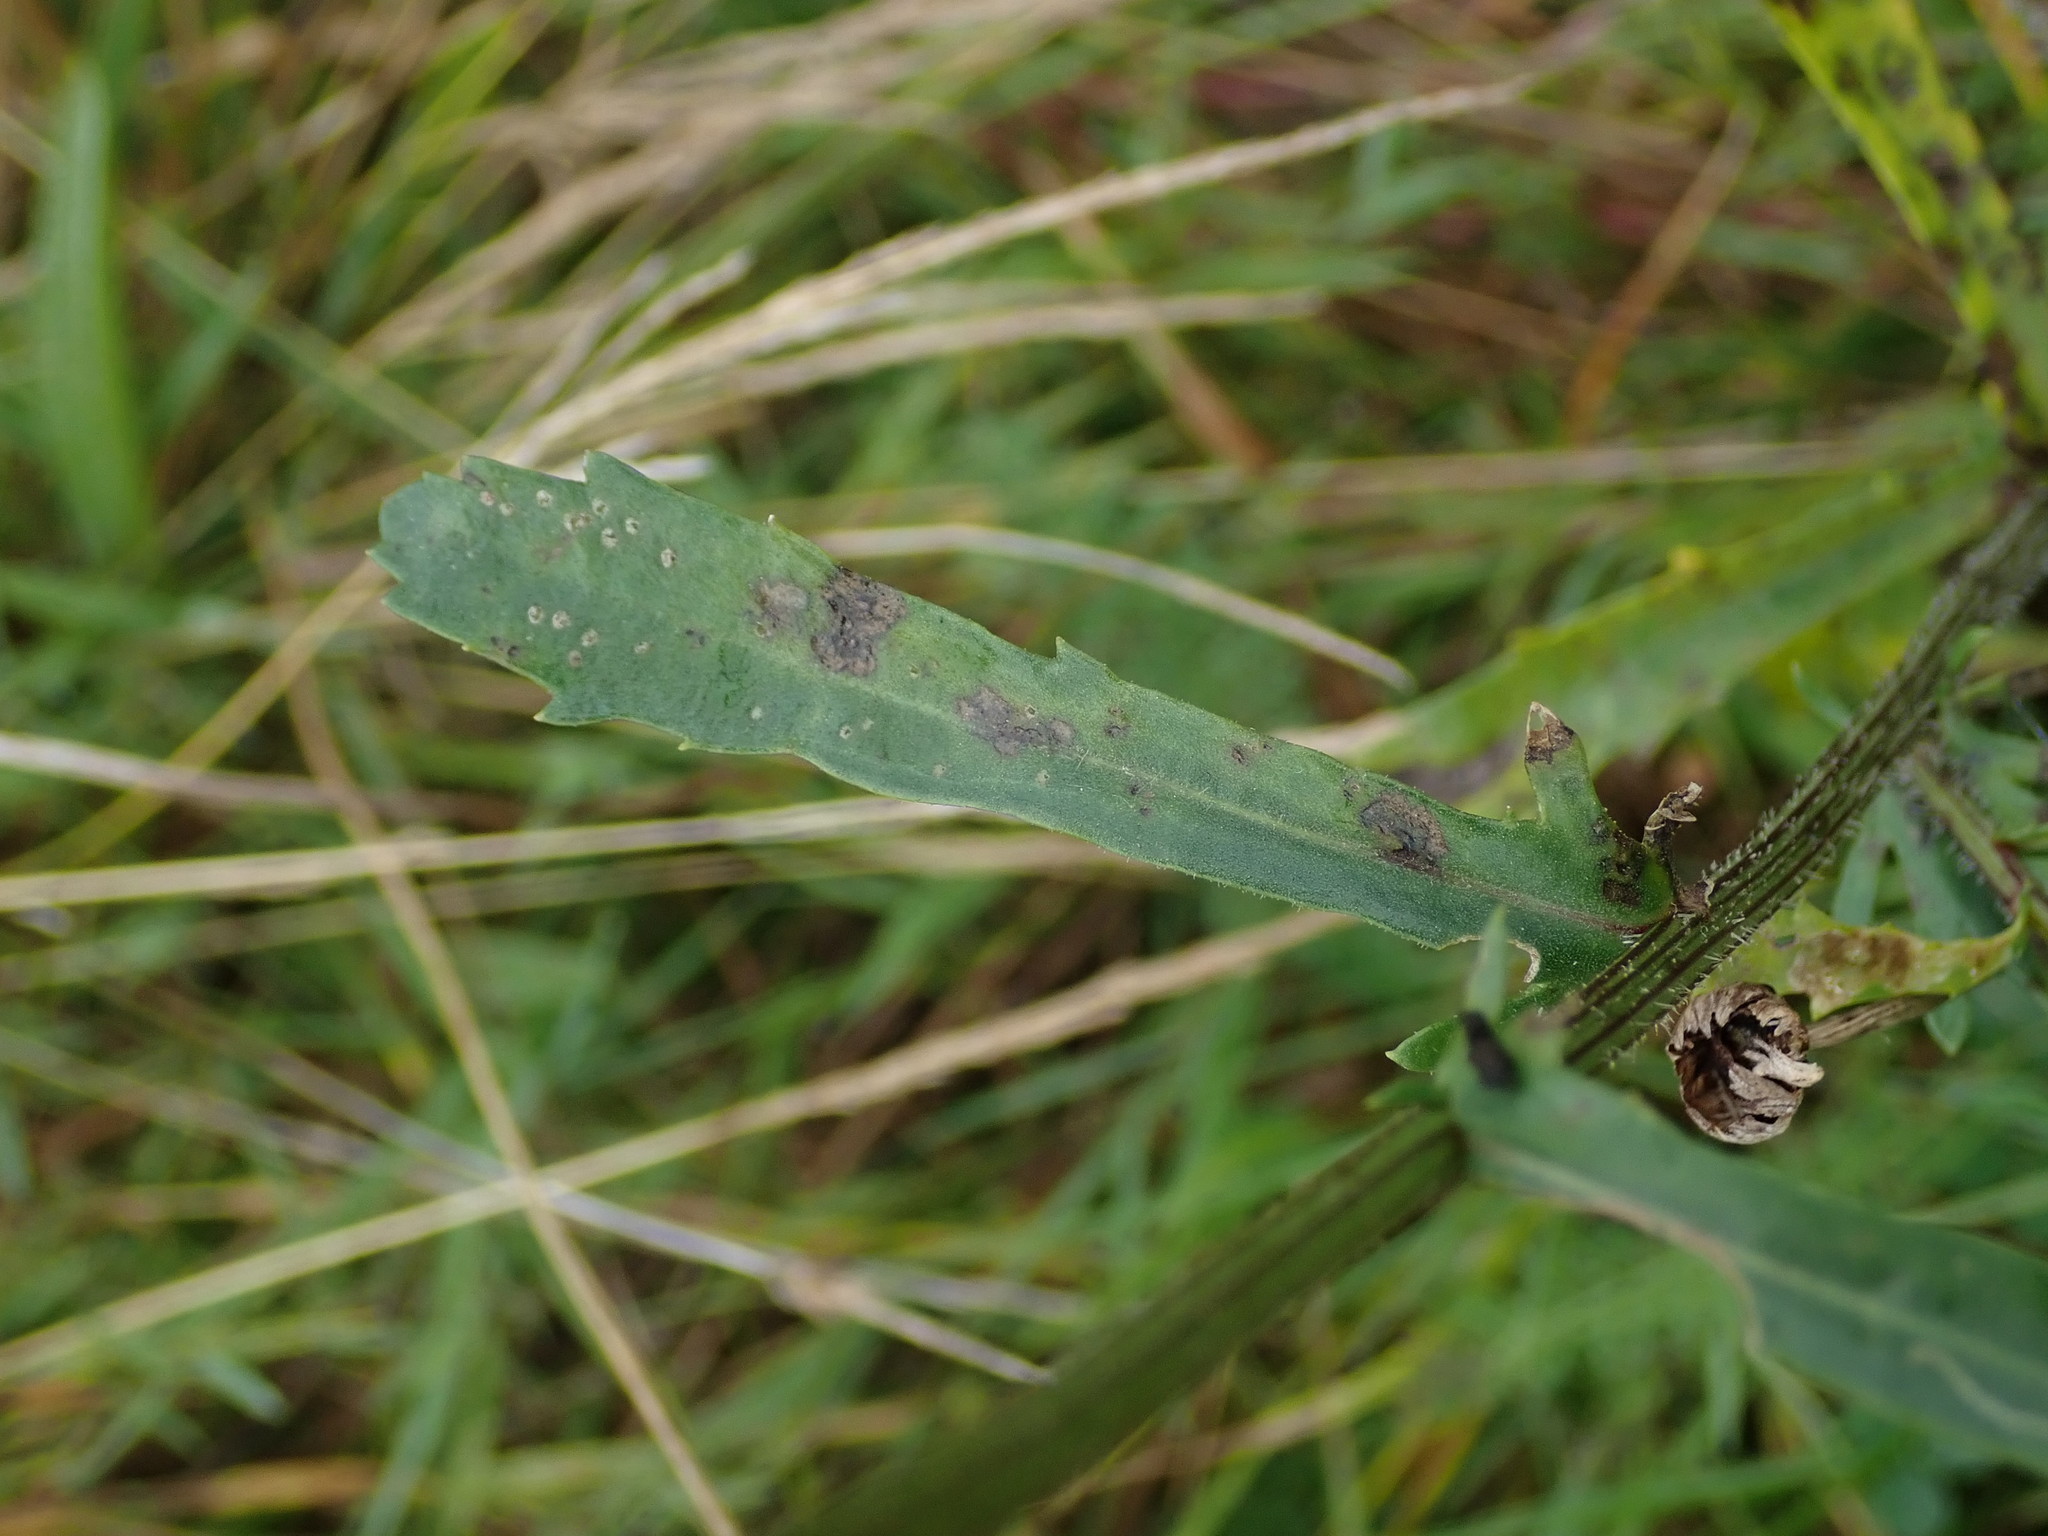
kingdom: Plantae
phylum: Tracheophyta
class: Magnoliopsida
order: Asterales
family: Asteraceae
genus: Leucanthemum
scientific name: Leucanthemum vulgare
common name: Oxeye daisy
